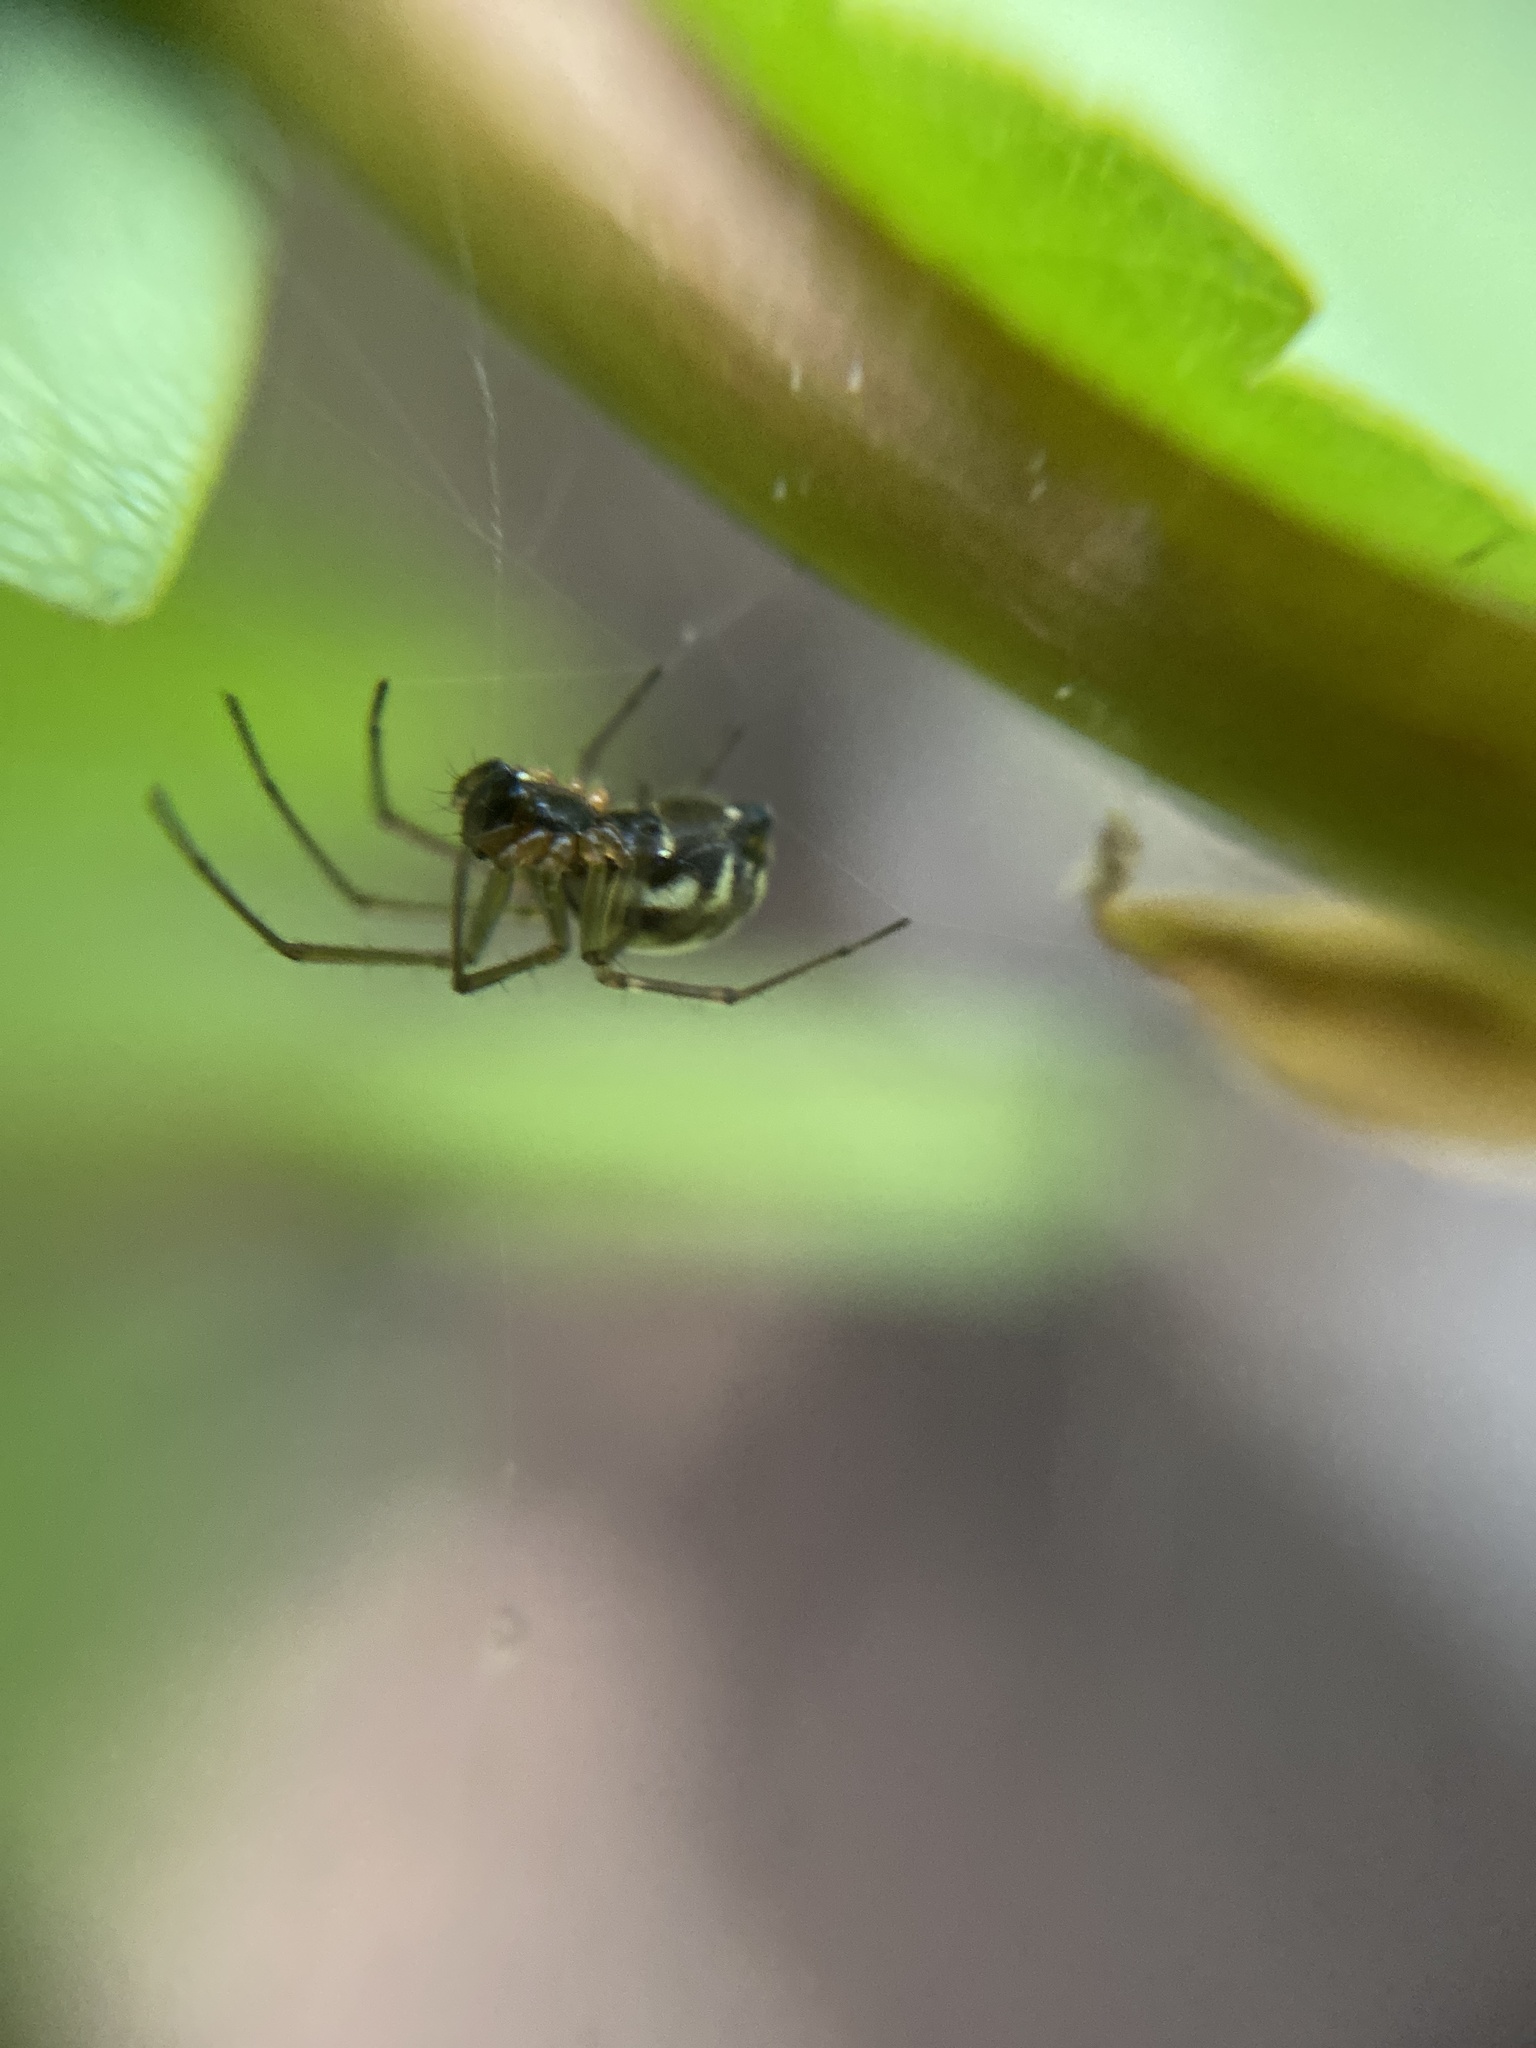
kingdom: Animalia
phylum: Arthropoda
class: Arachnida
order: Araneae
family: Linyphiidae
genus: Neriene
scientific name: Neriene peltata
